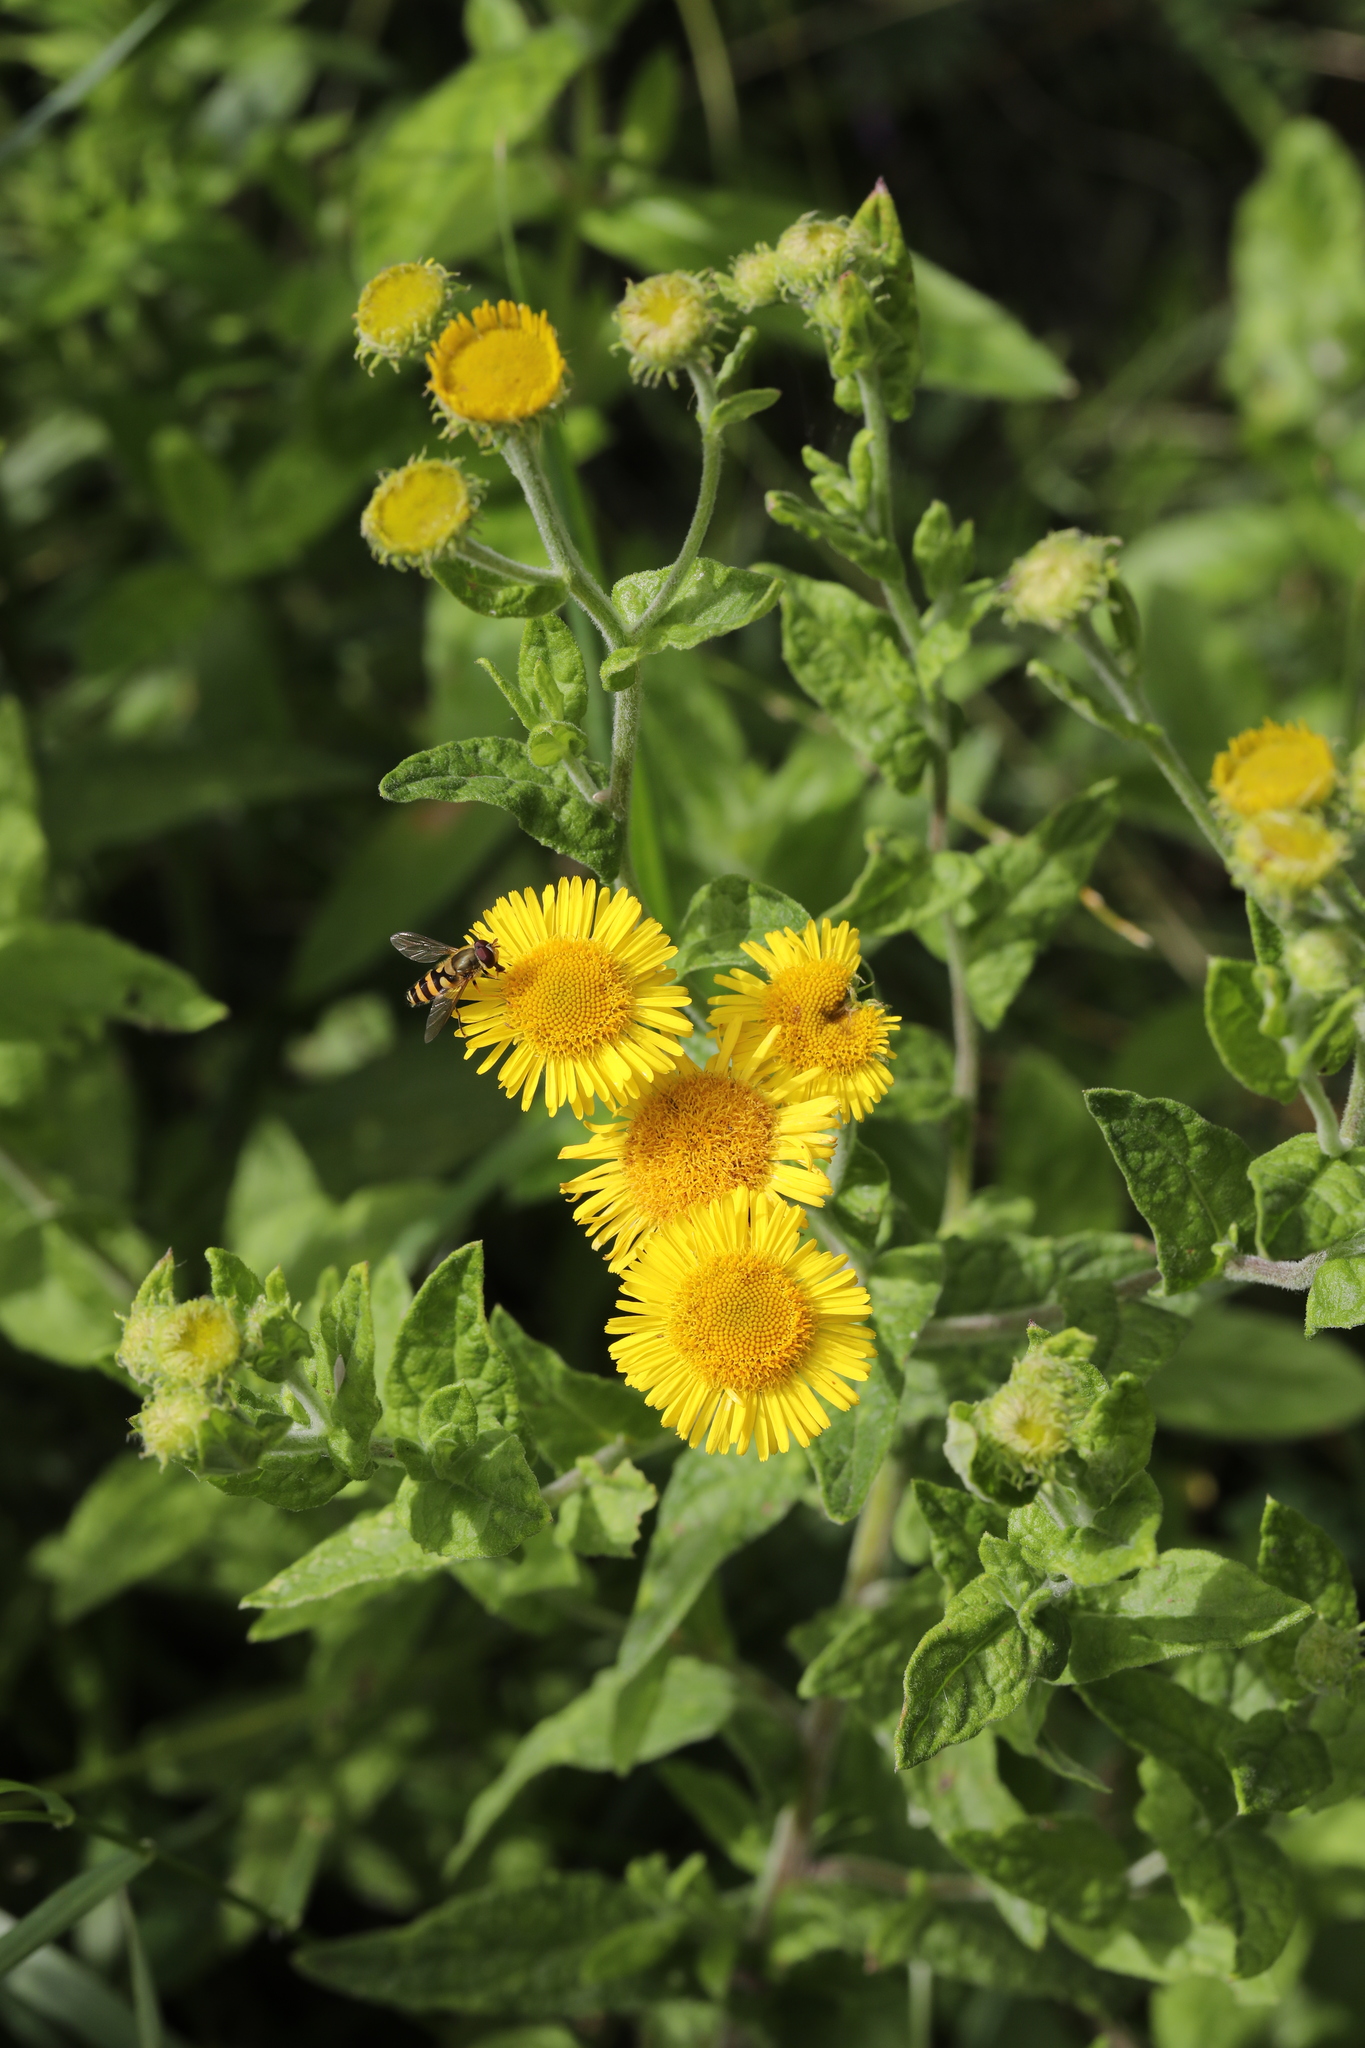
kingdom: Plantae
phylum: Tracheophyta
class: Magnoliopsida
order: Asterales
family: Asteraceae
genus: Pulicaria
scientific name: Pulicaria dysenterica
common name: Common fleabane
